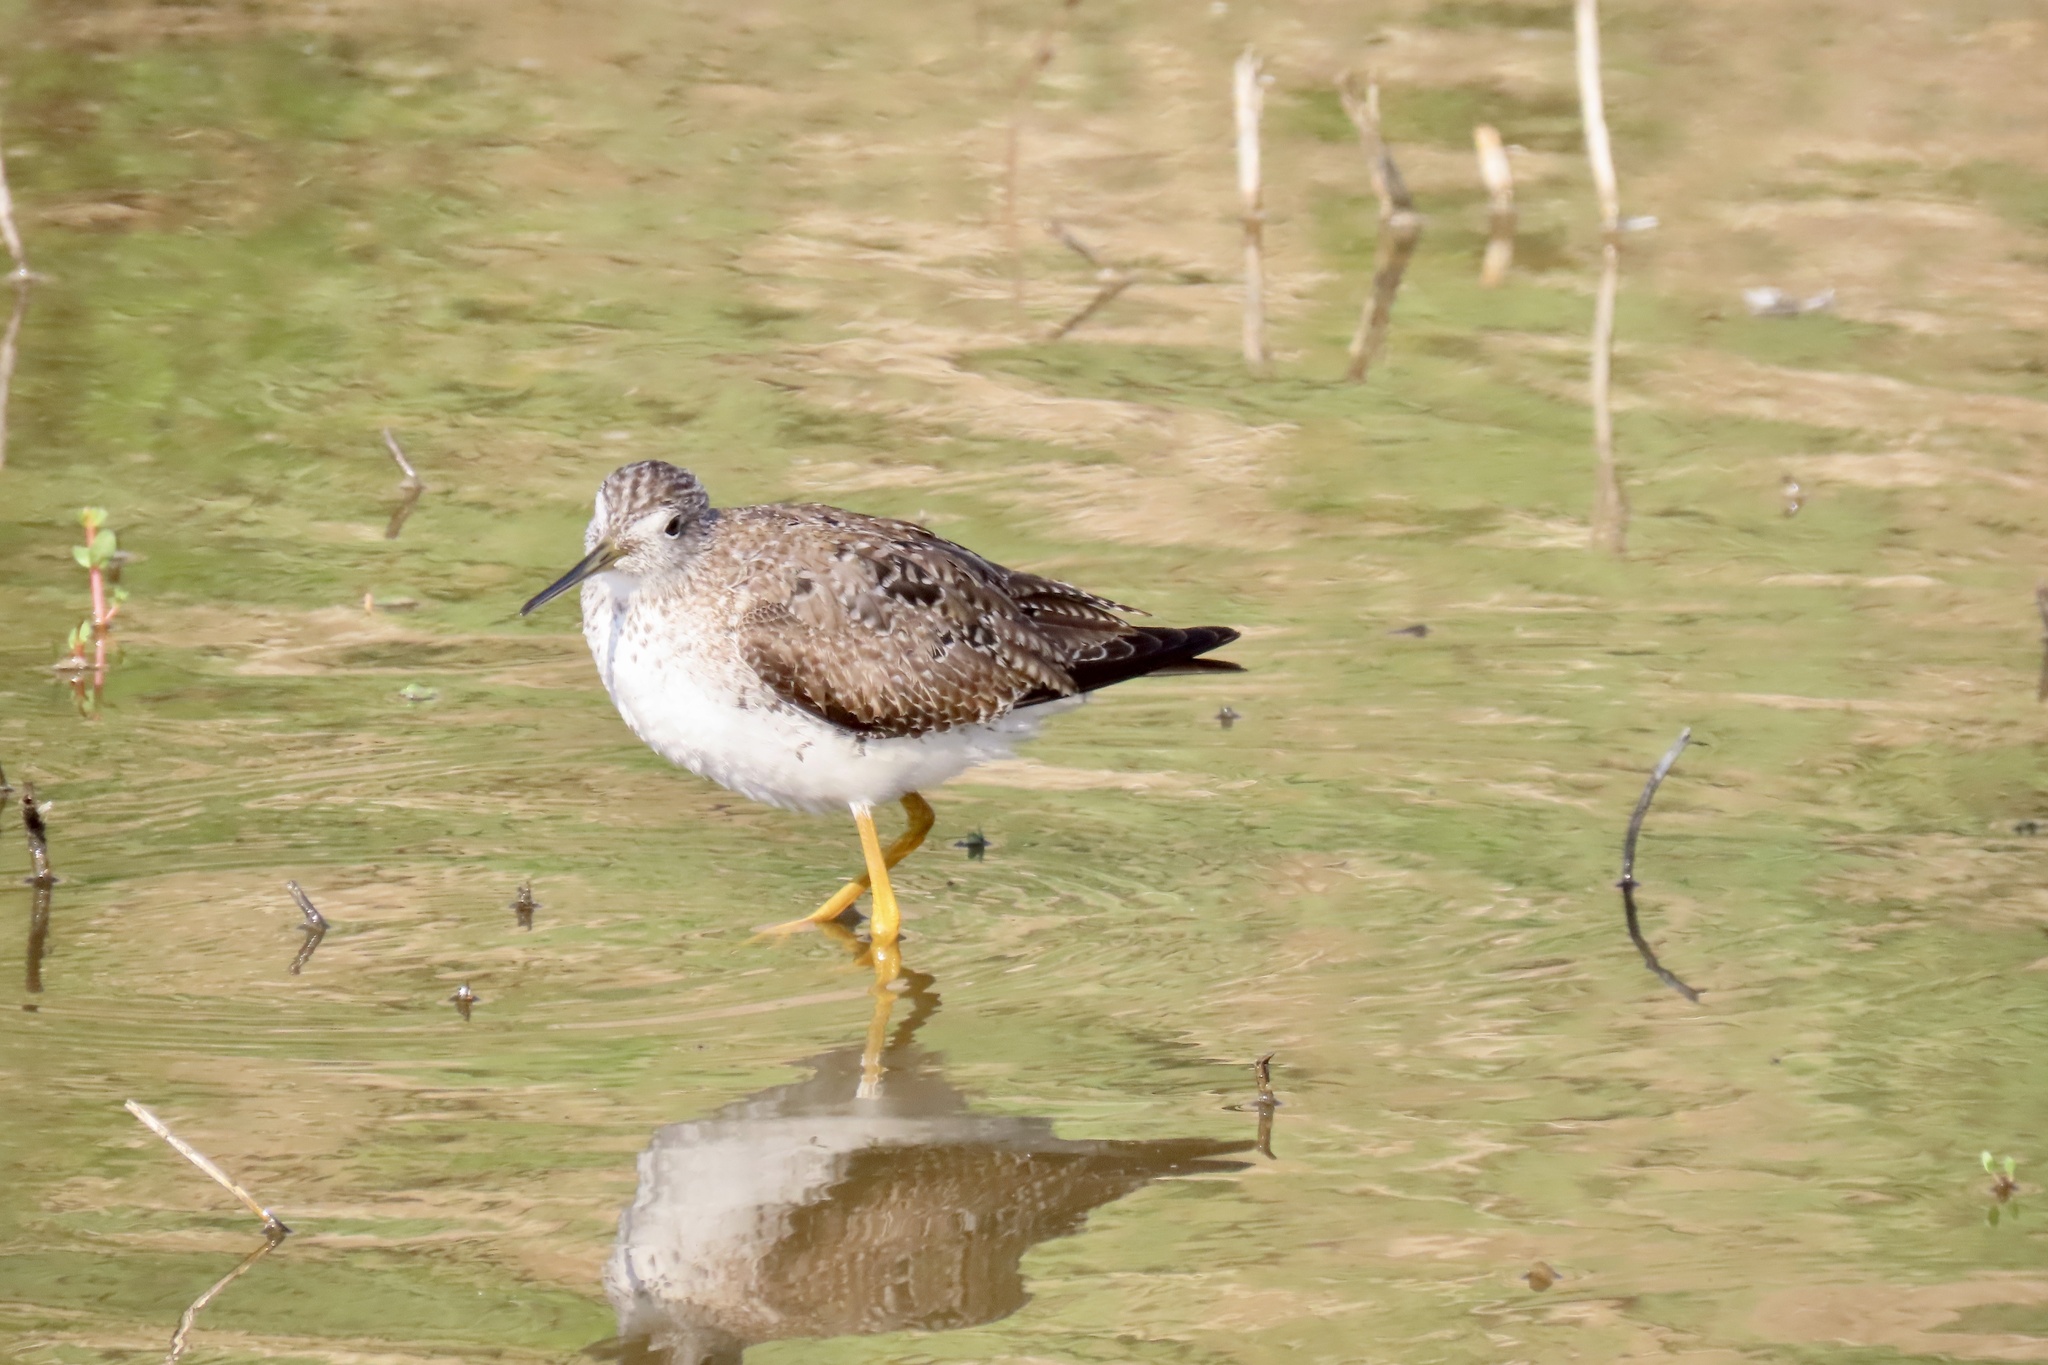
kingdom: Animalia
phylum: Chordata
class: Aves
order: Charadriiformes
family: Scolopacidae
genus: Tringa
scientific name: Tringa melanoleuca
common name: Greater yellowlegs
